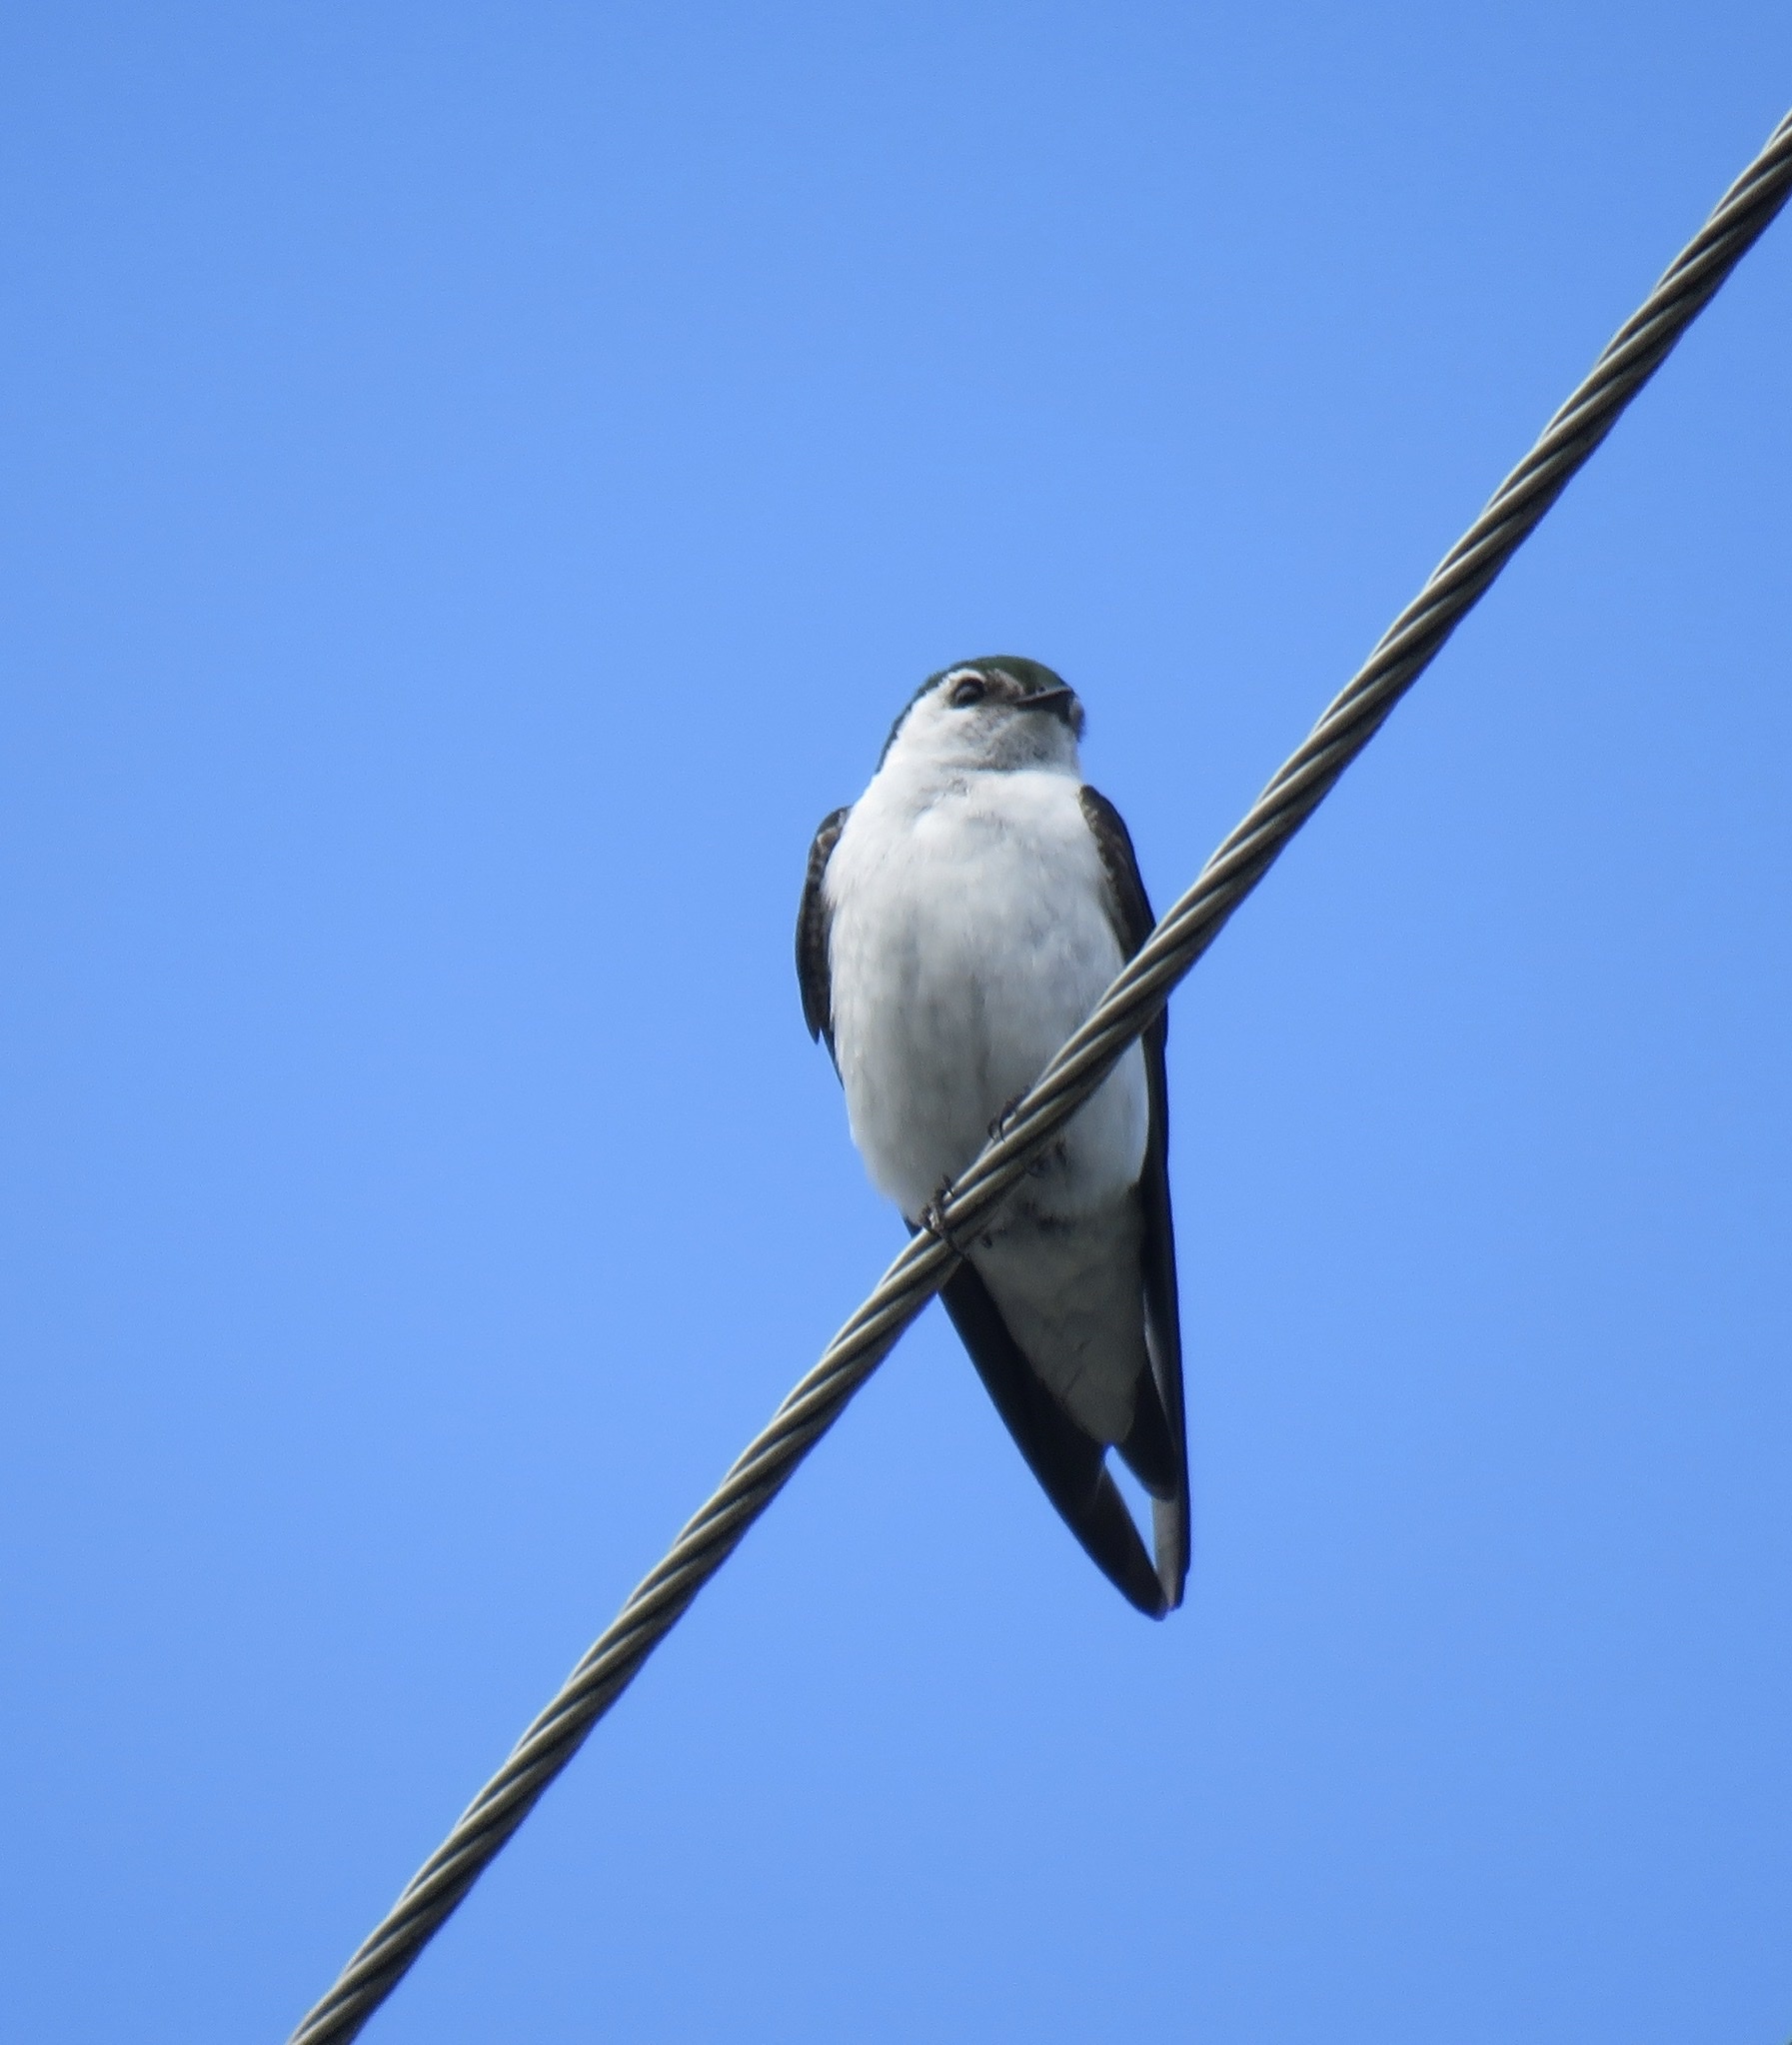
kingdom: Animalia
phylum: Chordata
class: Aves
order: Passeriformes
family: Hirundinidae
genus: Tachycineta
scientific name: Tachycineta thalassina
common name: Violet-green swallow
